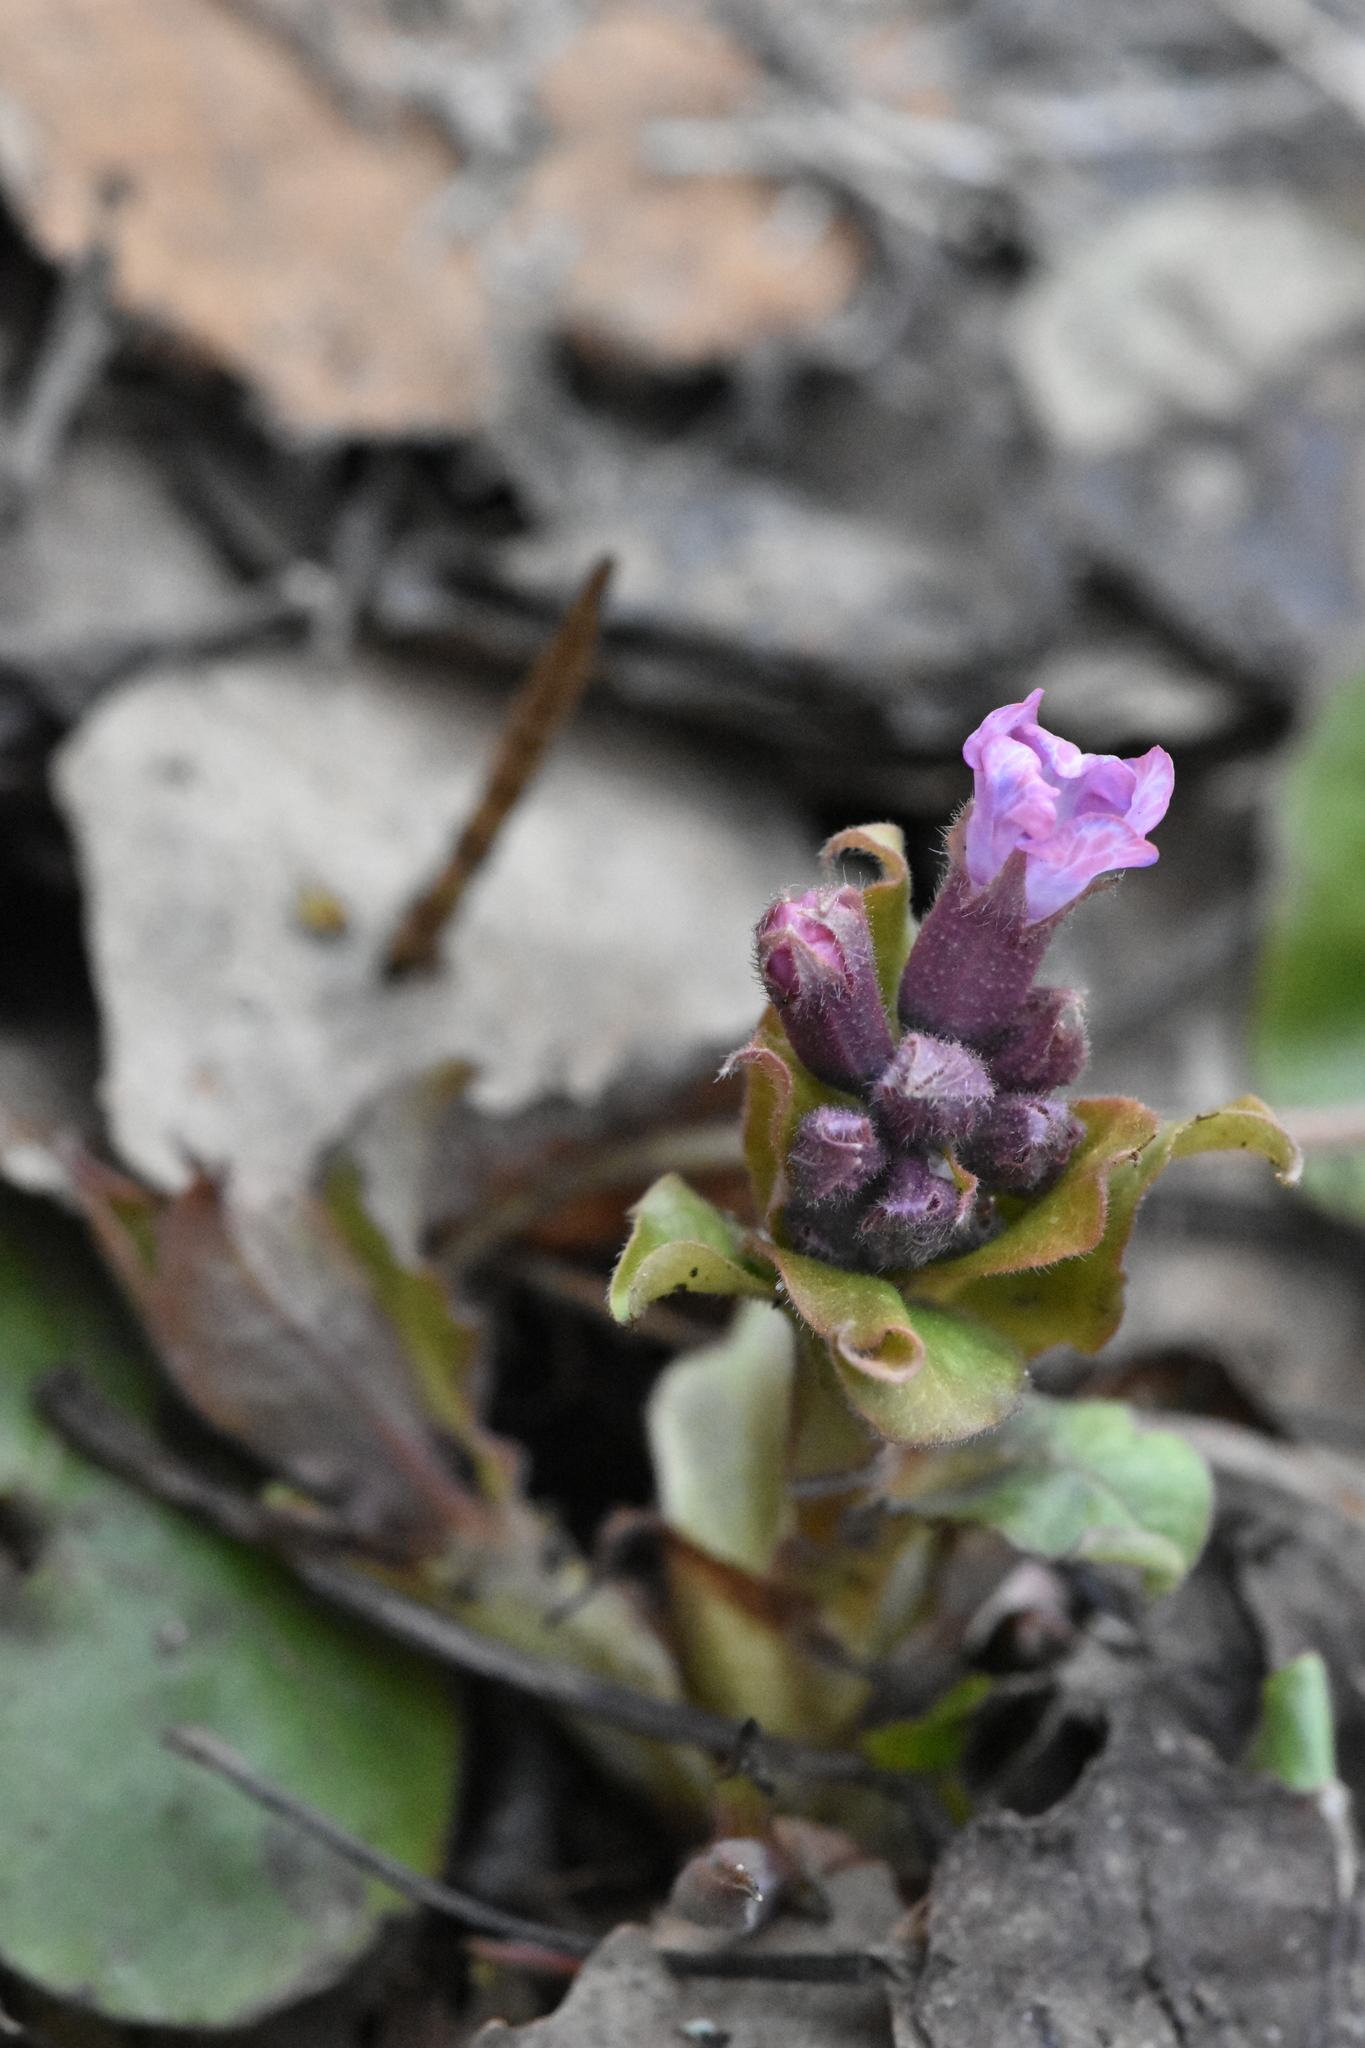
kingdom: Plantae
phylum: Tracheophyta
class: Magnoliopsida
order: Boraginales
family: Boraginaceae
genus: Pulmonaria
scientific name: Pulmonaria obscura
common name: Suffolk lungwort
